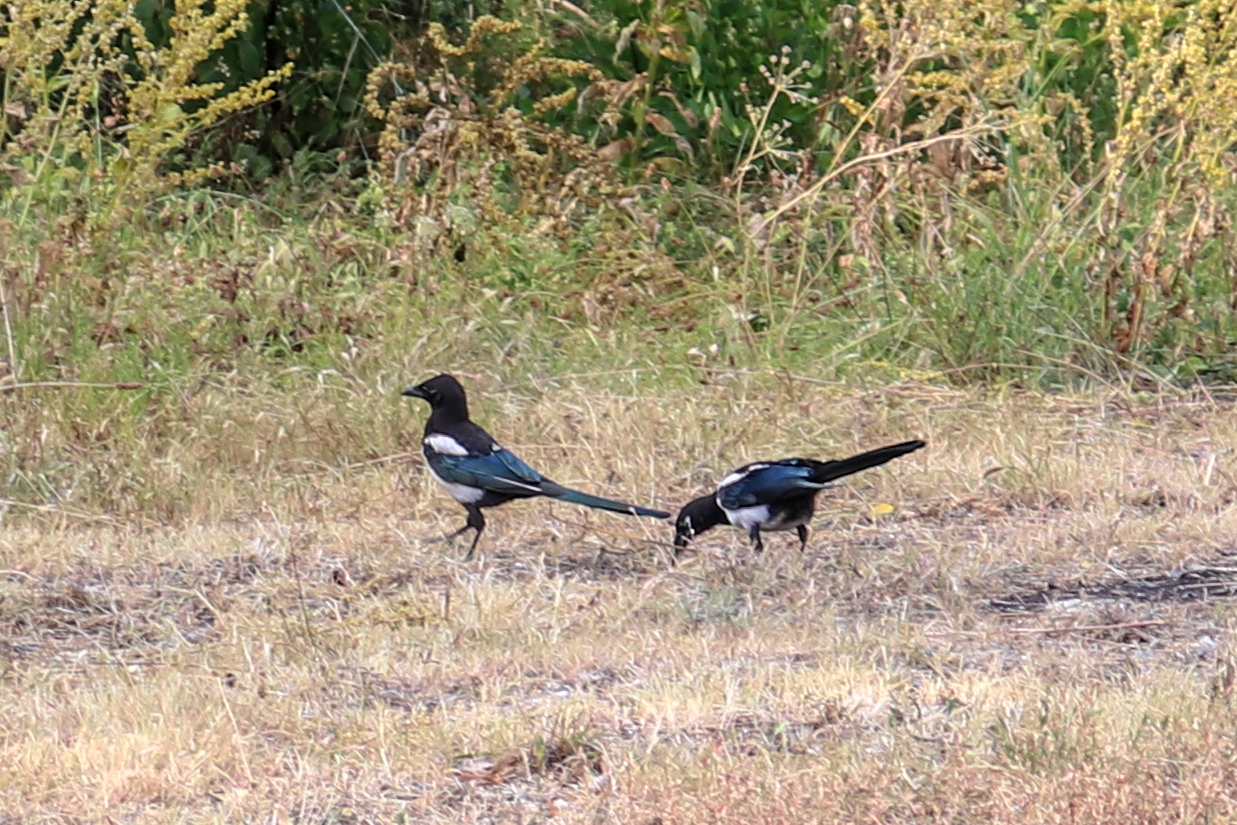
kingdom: Animalia
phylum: Chordata
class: Aves
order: Passeriformes
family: Corvidae
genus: Pica
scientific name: Pica pica
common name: Eurasian magpie
